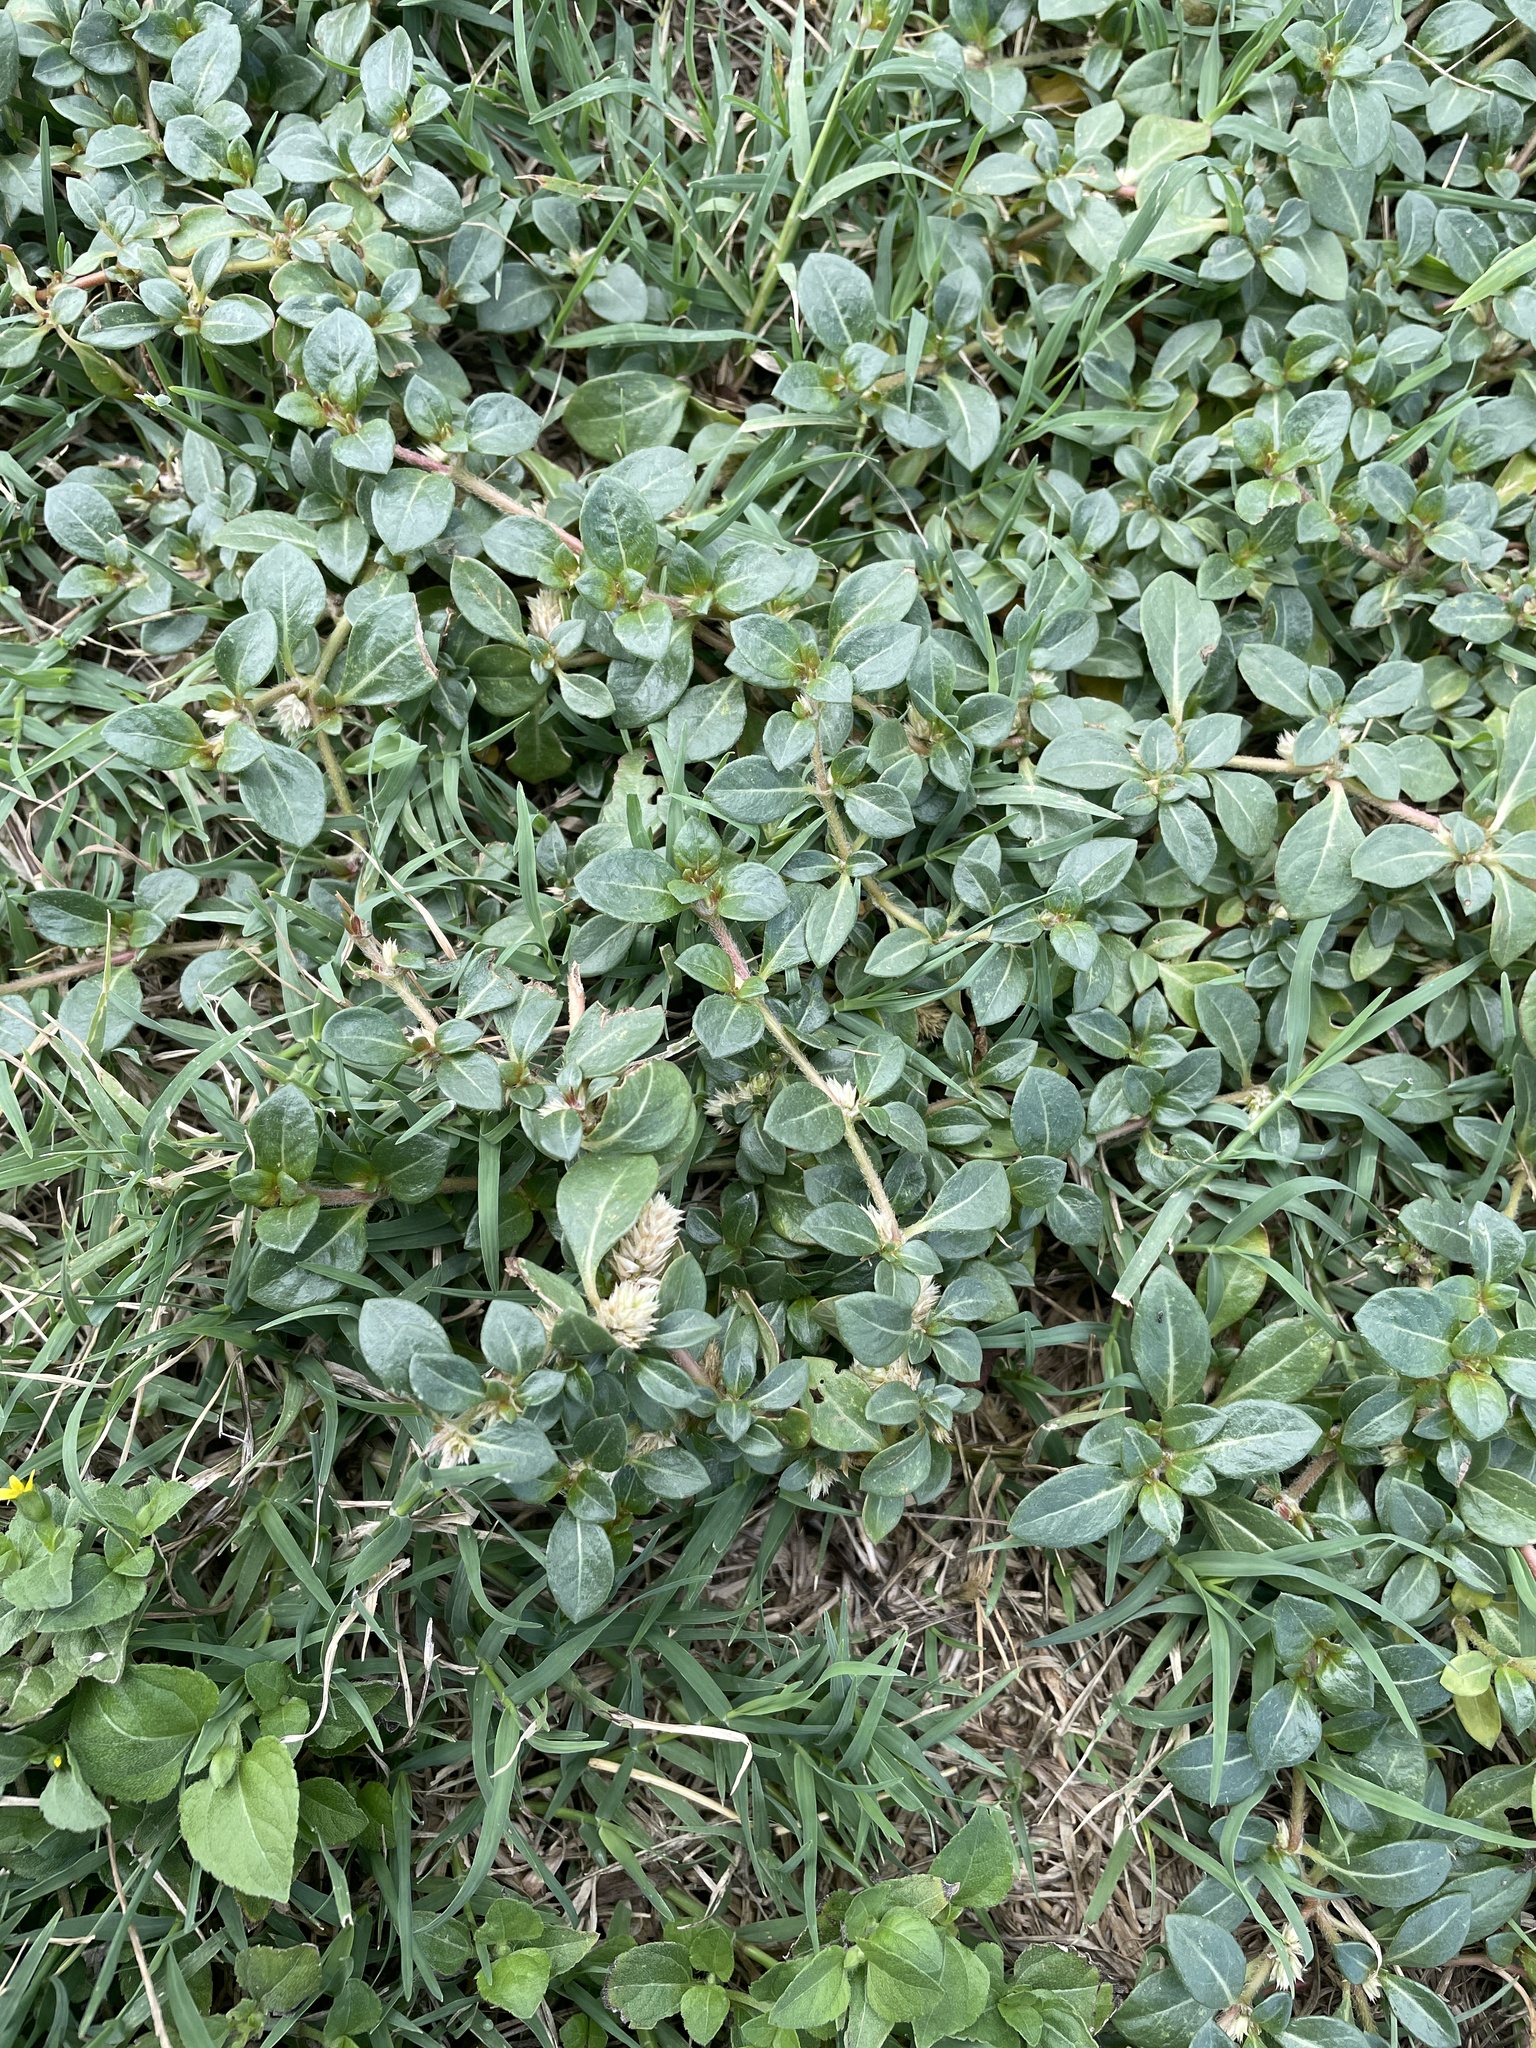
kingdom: Plantae
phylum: Tracheophyta
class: Magnoliopsida
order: Caryophyllales
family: Amaranthaceae
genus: Alternanthera
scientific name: Alternanthera caracasana
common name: Washerwoman
